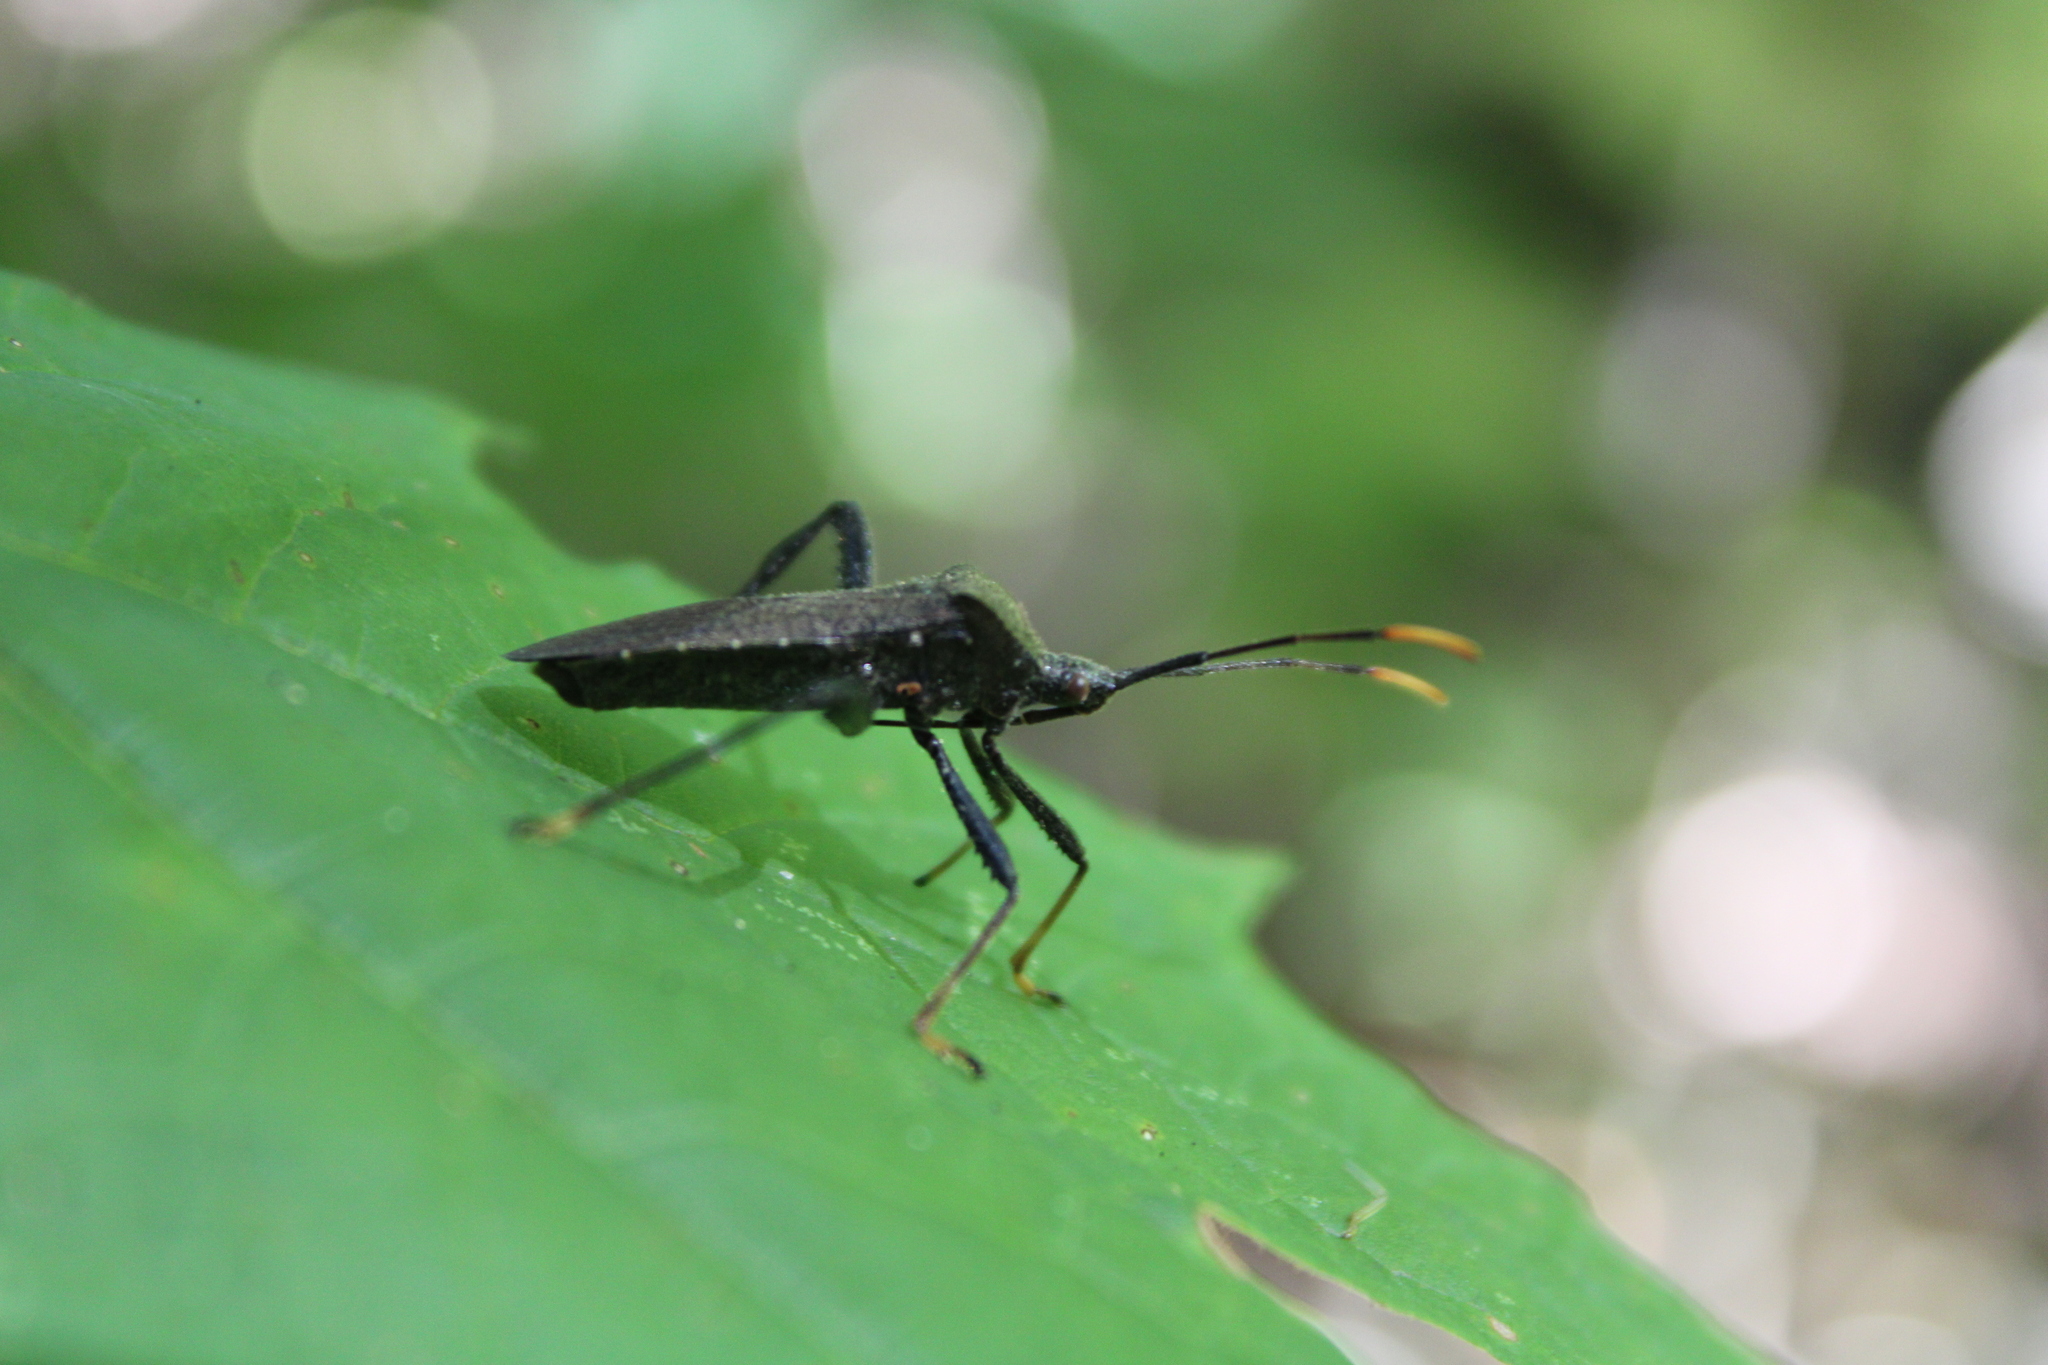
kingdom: Animalia
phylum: Arthropoda
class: Insecta
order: Hemiptera
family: Coreidae
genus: Acanthocephala
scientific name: Acanthocephala terminalis
